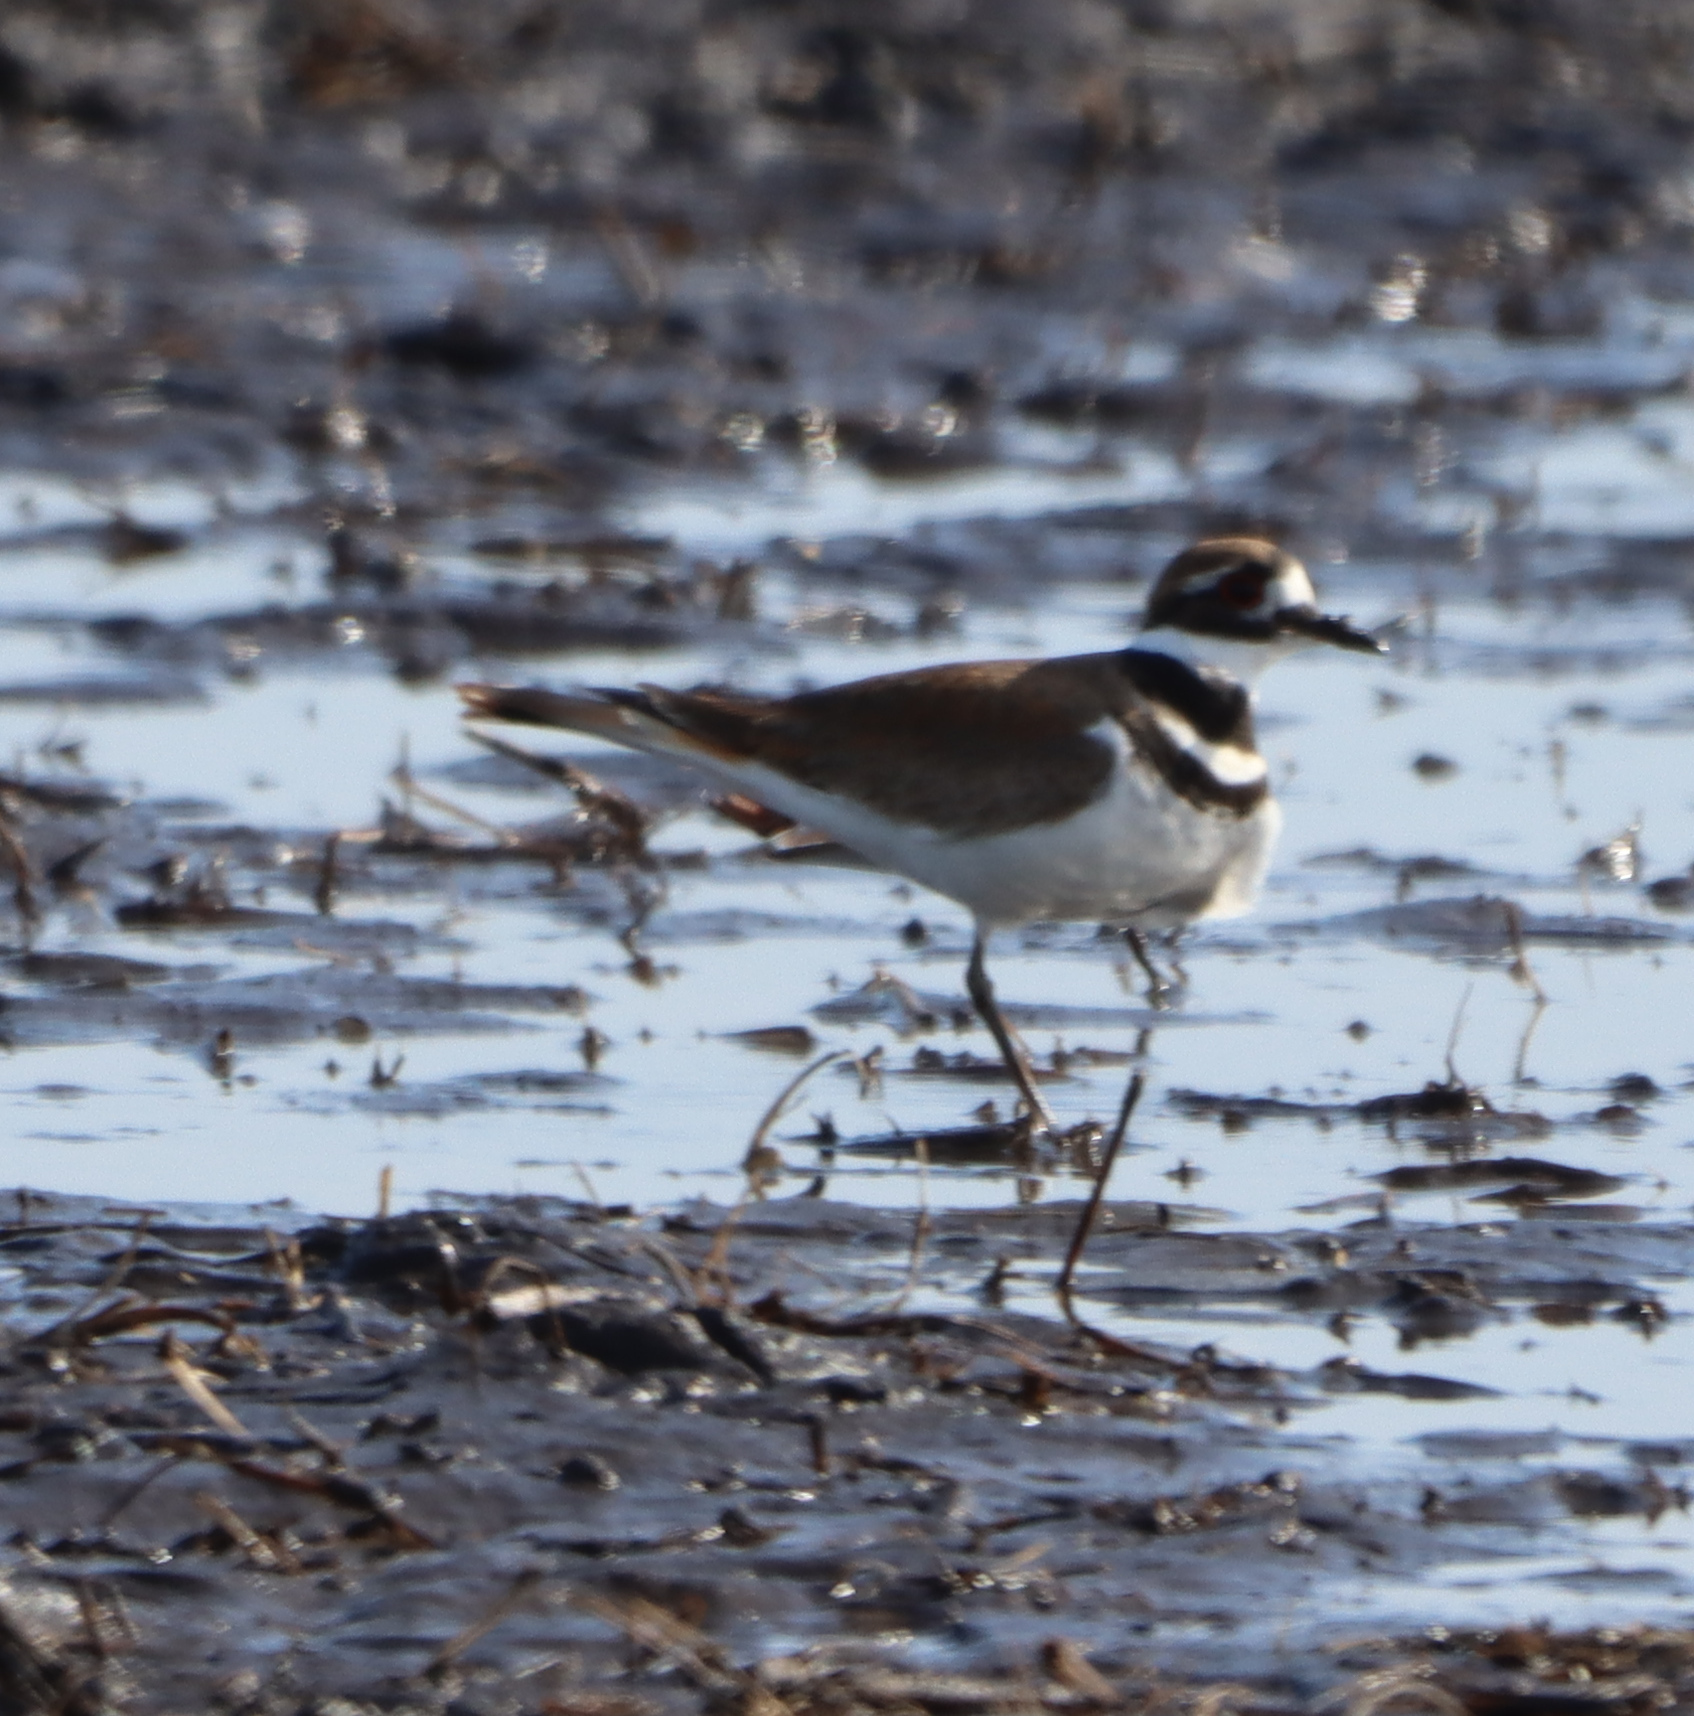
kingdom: Animalia
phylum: Chordata
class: Aves
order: Charadriiformes
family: Charadriidae
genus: Charadrius
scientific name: Charadrius vociferus
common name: Killdeer
